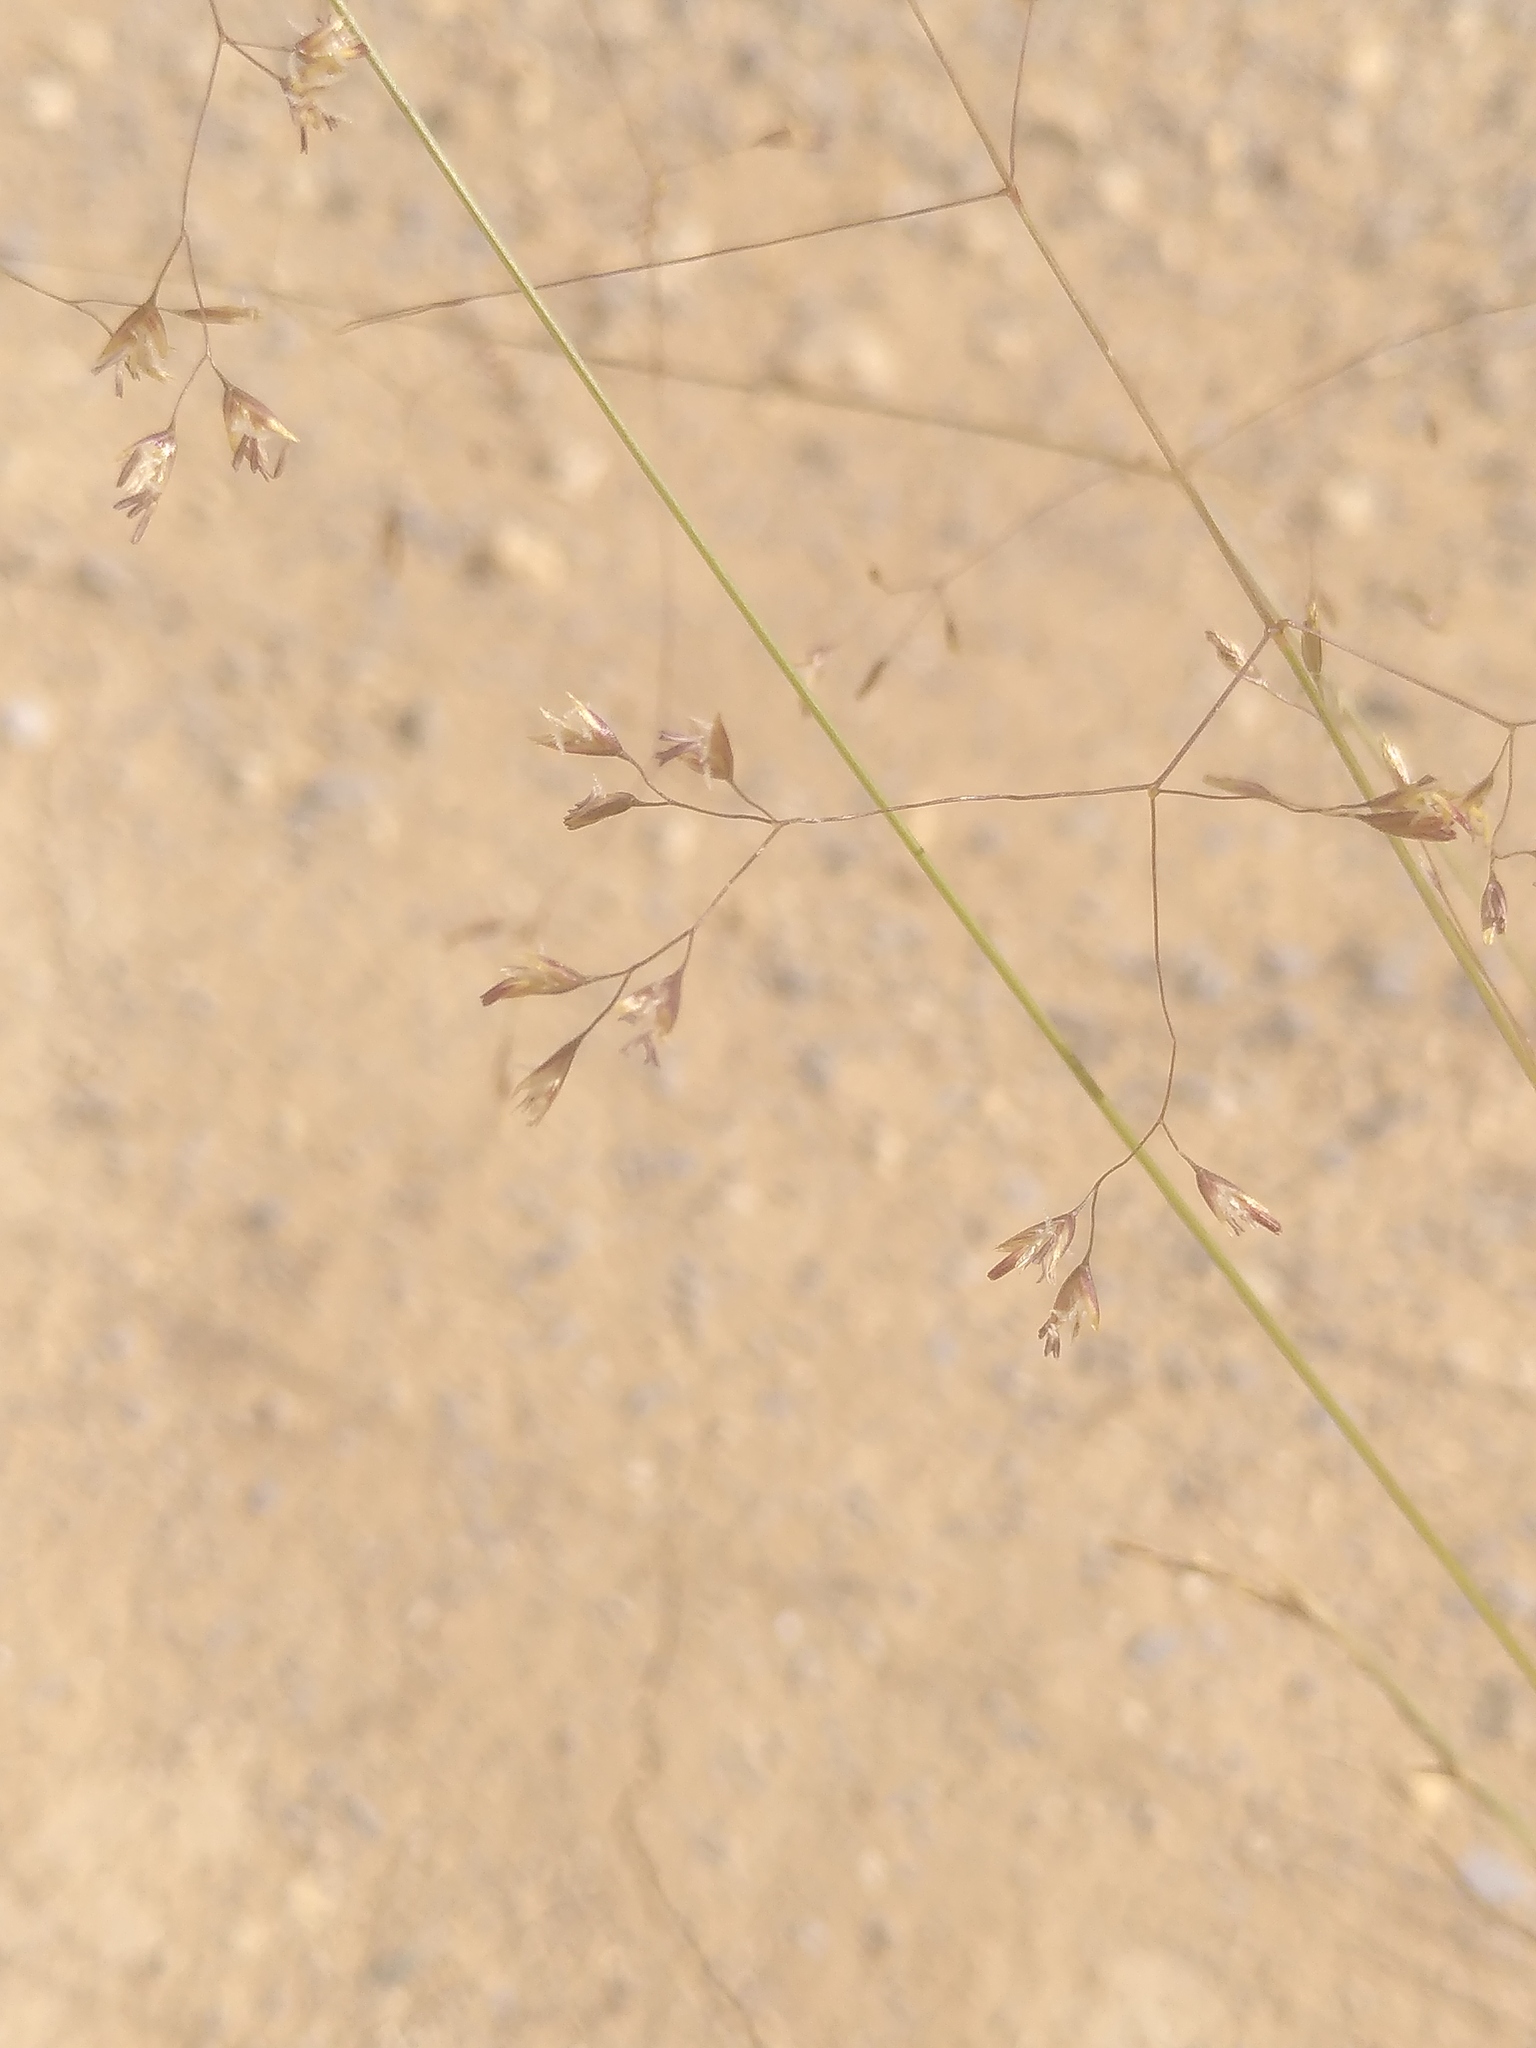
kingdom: Plantae
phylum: Tracheophyta
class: Liliopsida
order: Poales
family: Poaceae
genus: Deschampsia
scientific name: Deschampsia media
